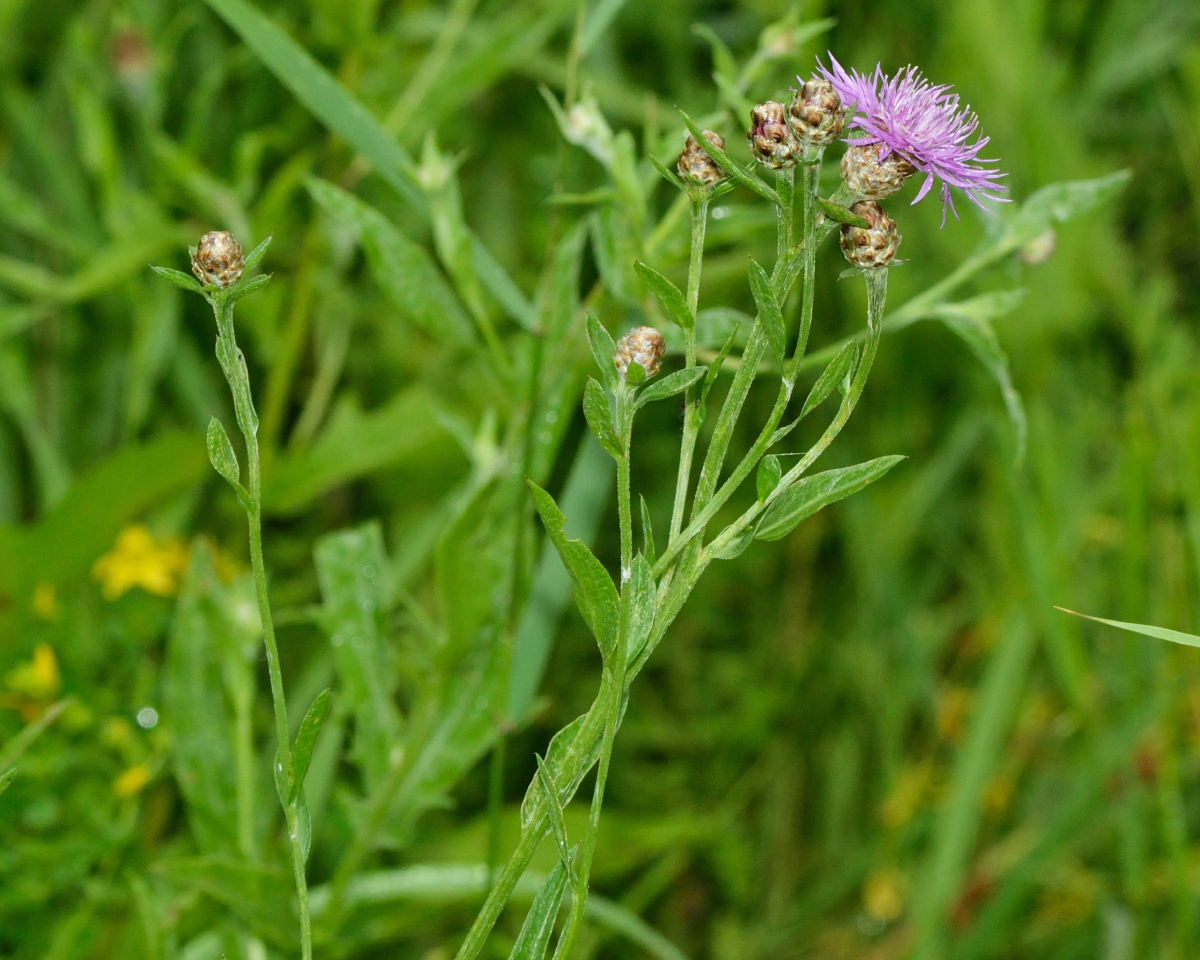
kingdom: Plantae
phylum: Tracheophyta
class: Magnoliopsida
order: Asterales
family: Asteraceae
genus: Centaurea
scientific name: Centaurea jacea
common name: Brown knapweed
